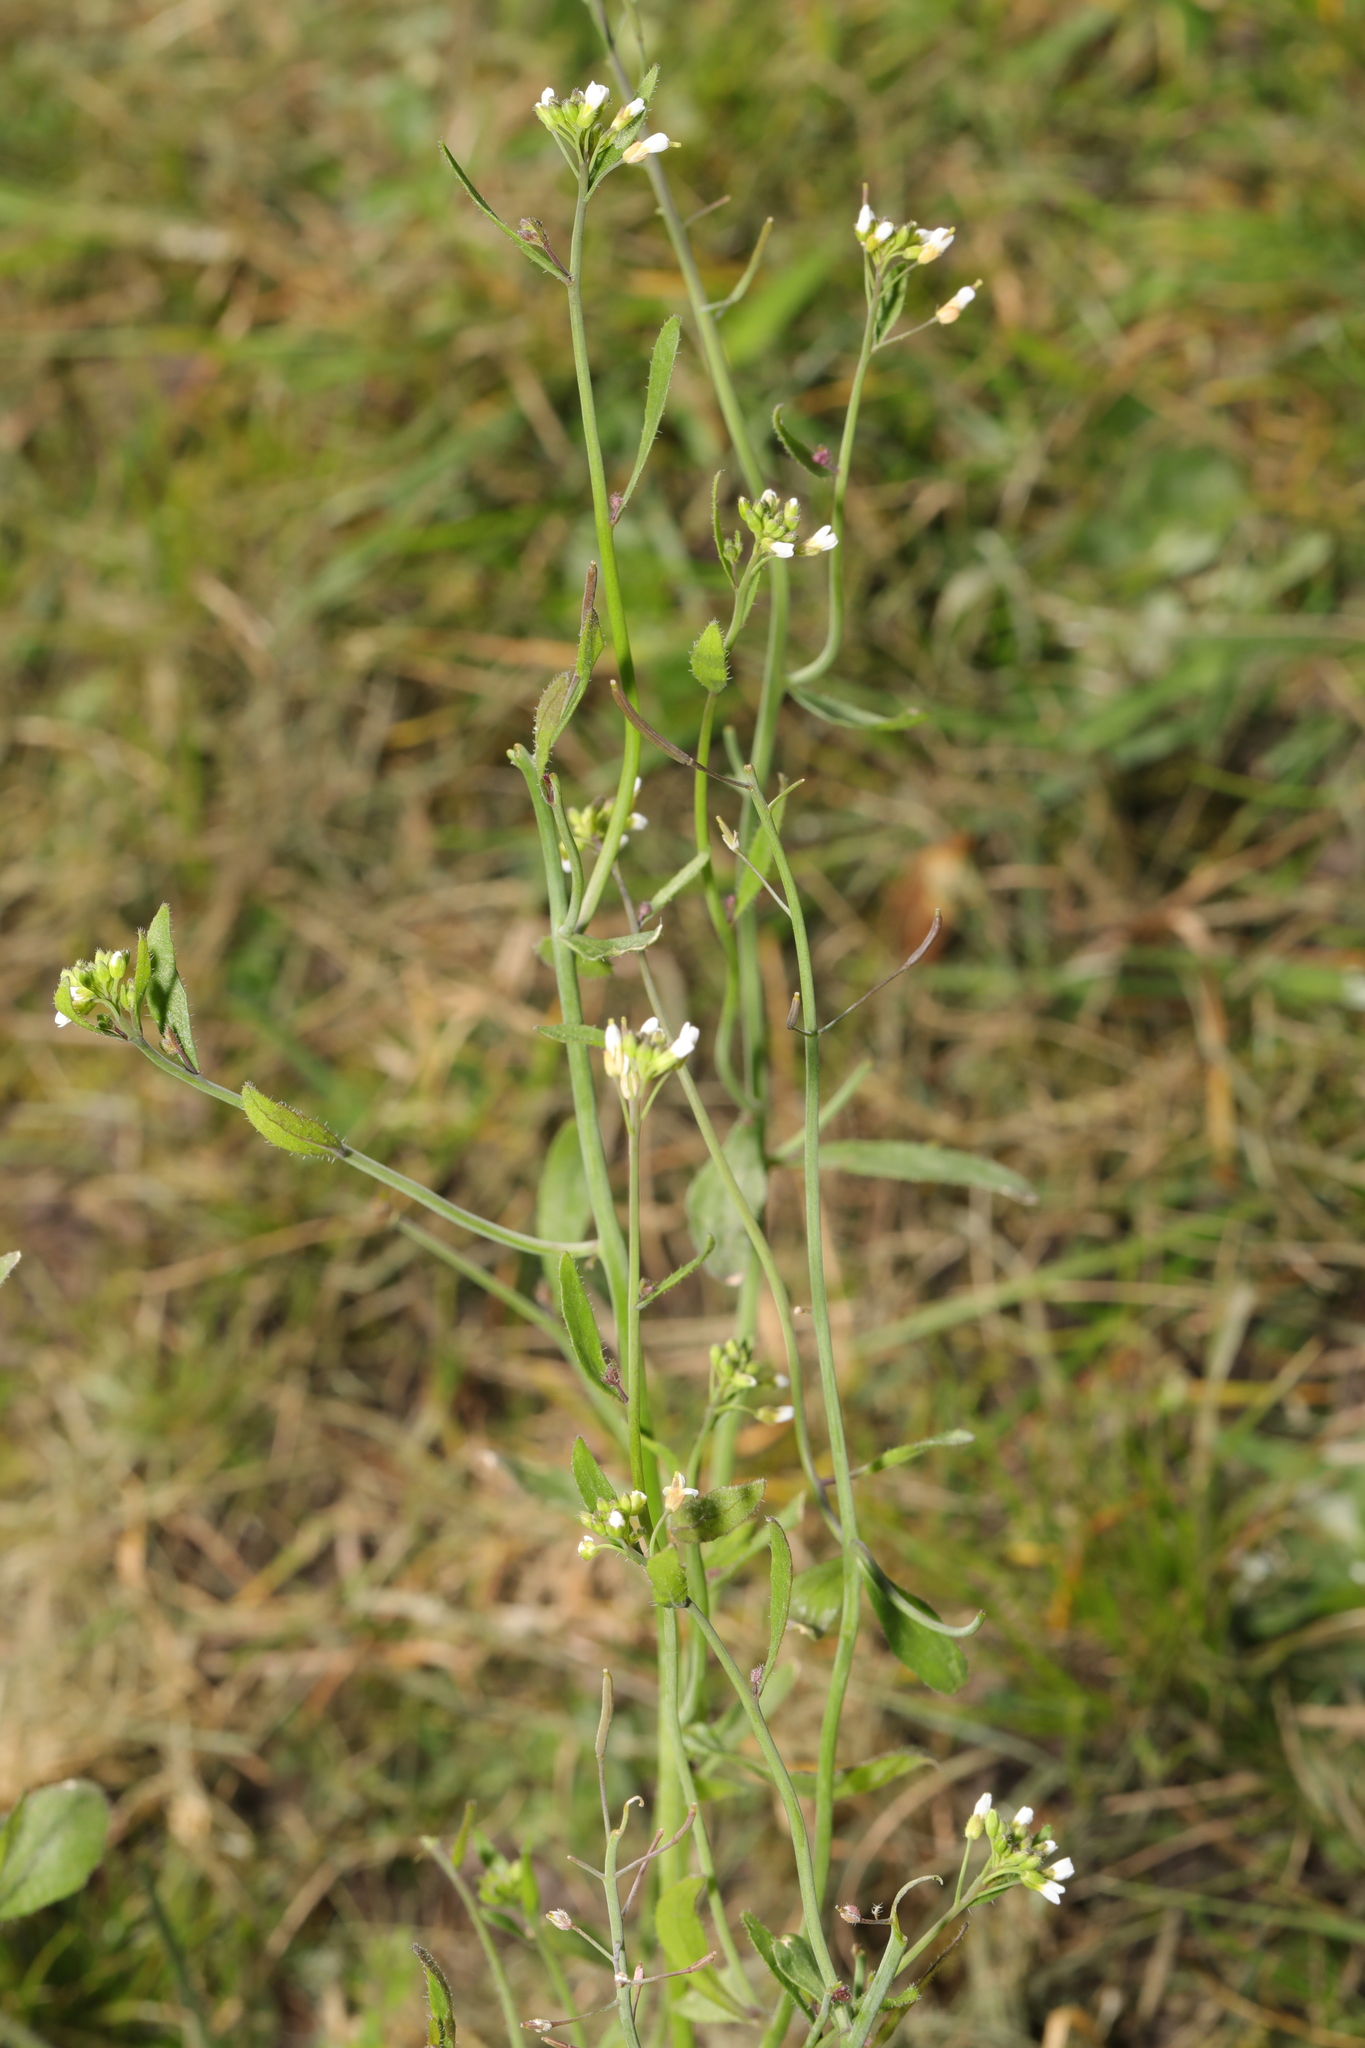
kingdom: Plantae
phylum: Tracheophyta
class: Magnoliopsida
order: Brassicales
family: Brassicaceae
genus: Arabidopsis
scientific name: Arabidopsis thaliana
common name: Thale cress
